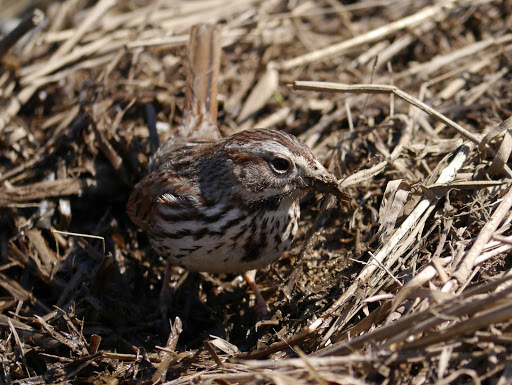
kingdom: Animalia
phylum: Chordata
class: Aves
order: Passeriformes
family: Passerellidae
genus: Melospiza
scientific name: Melospiza melodia
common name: Song sparrow
